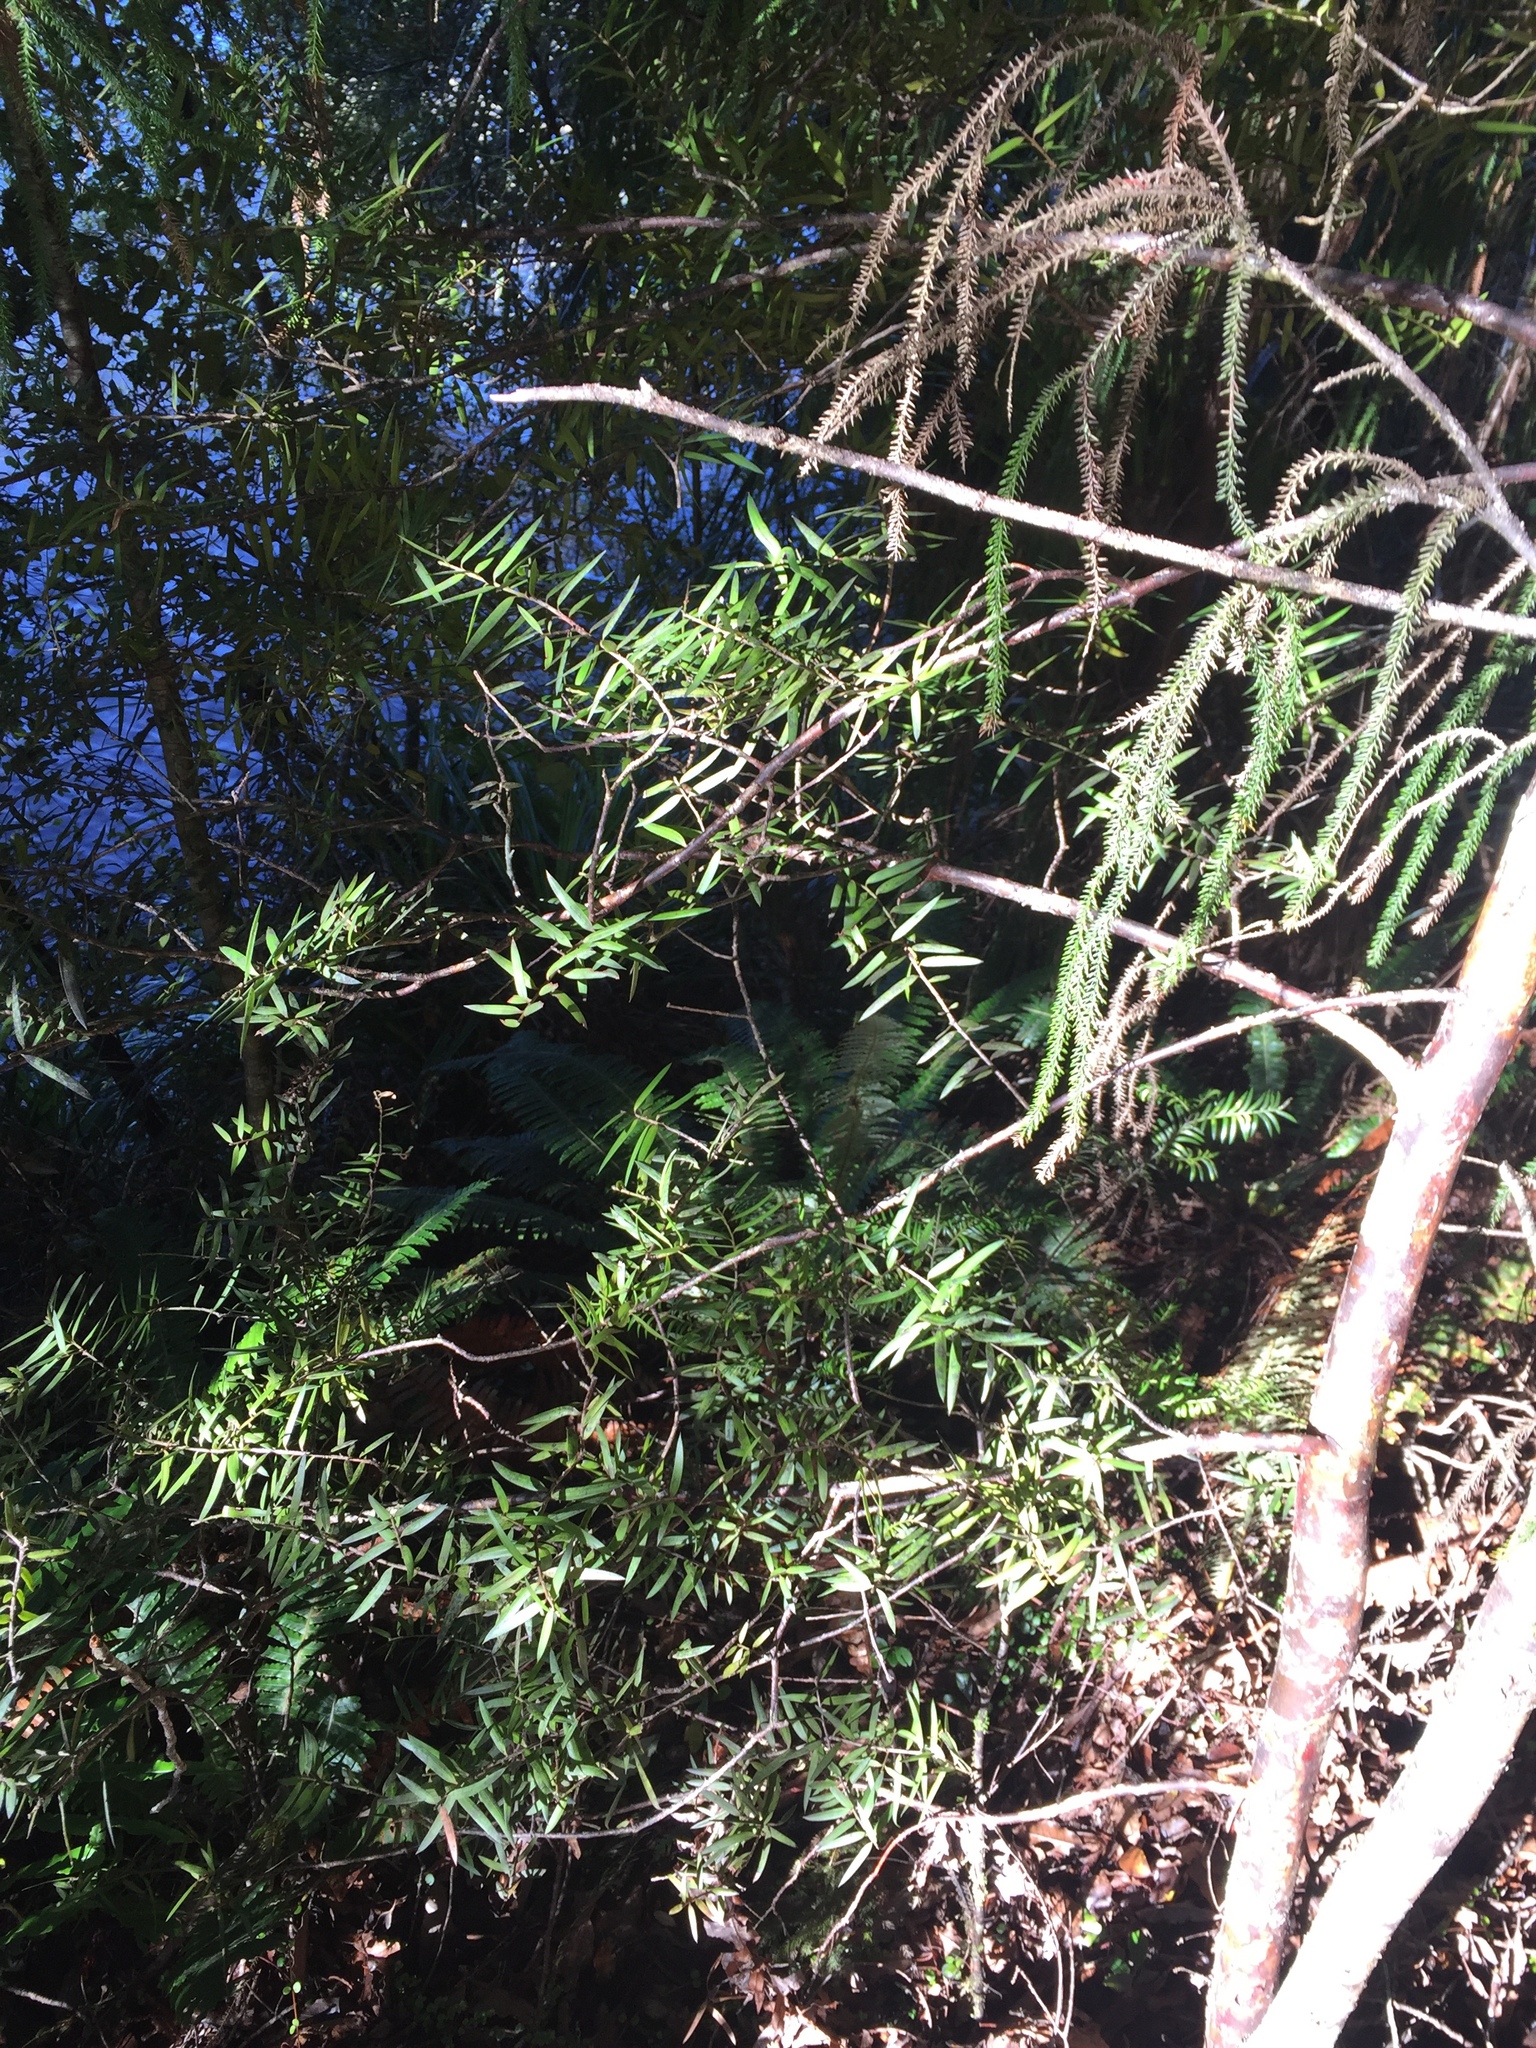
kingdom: Plantae
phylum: Tracheophyta
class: Pinopsida
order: Pinales
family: Podocarpaceae
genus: Podocarpus
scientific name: Podocarpus laetus
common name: Hall's totara
